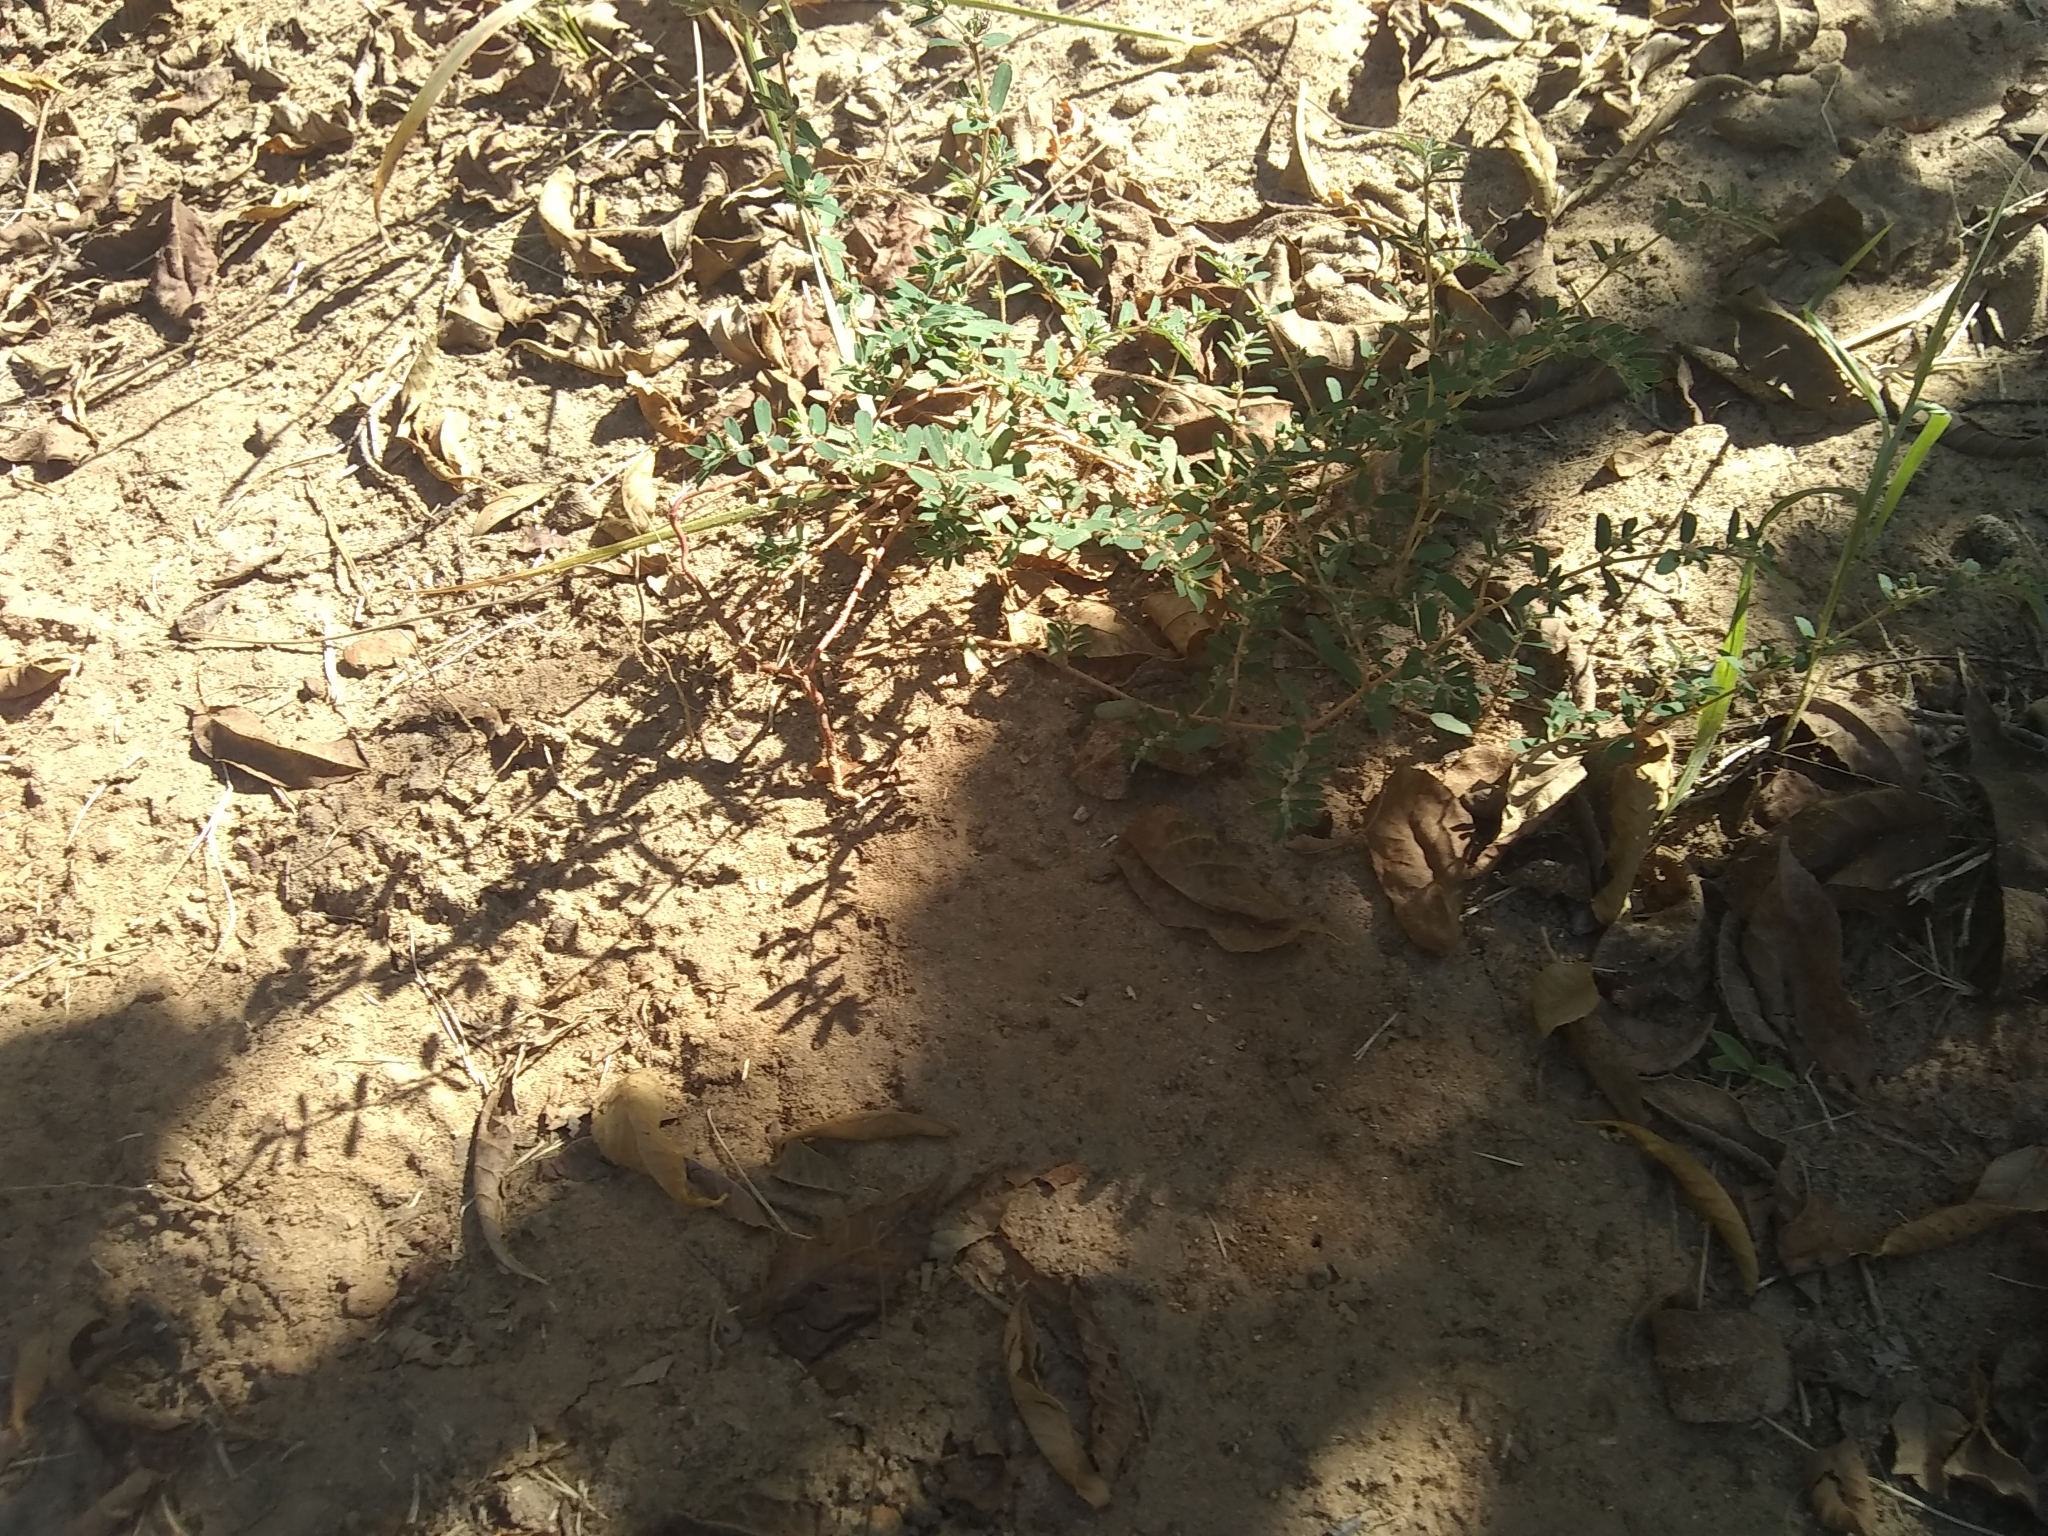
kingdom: Plantae
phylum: Tracheophyta
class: Magnoliopsida
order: Malpighiales
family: Euphorbiaceae
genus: Euphorbia
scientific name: Euphorbia maculata
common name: Spotted spurge
